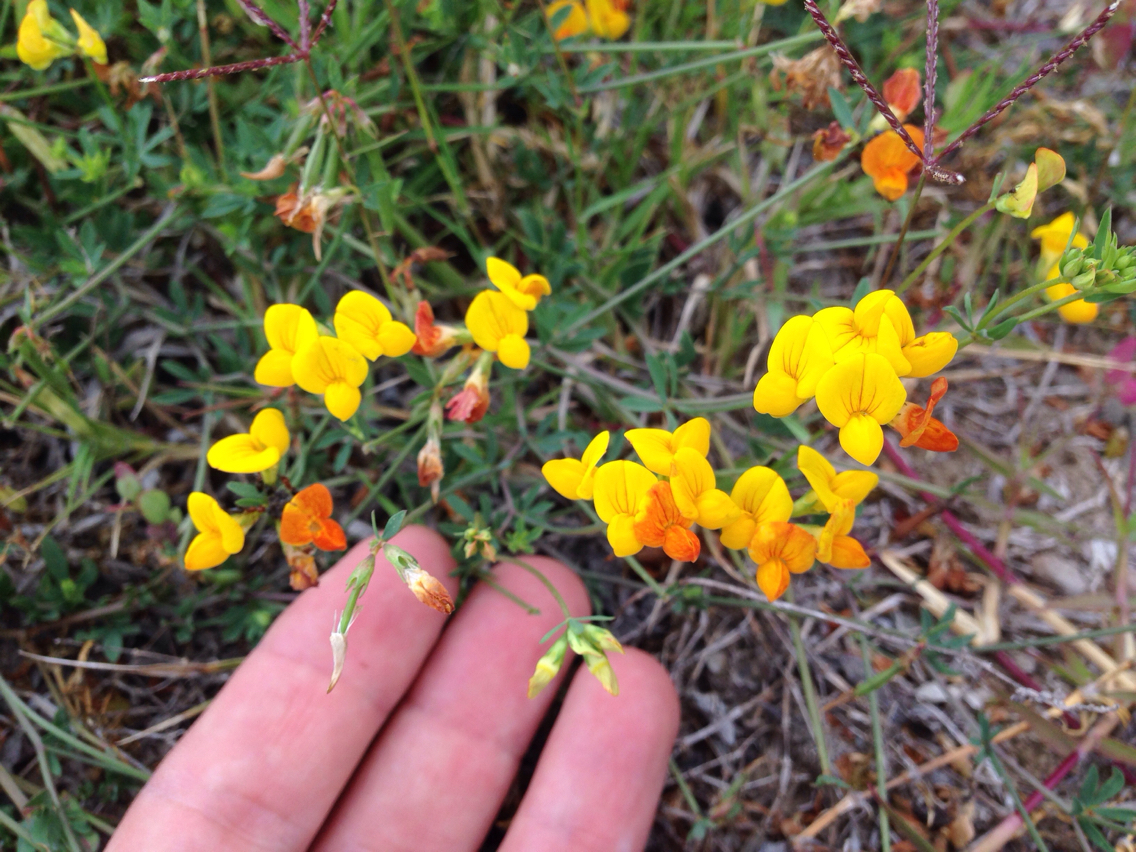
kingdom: Plantae
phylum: Tracheophyta
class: Magnoliopsida
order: Fabales
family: Fabaceae
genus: Lotus
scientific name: Lotus corniculatus
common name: Common bird's-foot-trefoil
